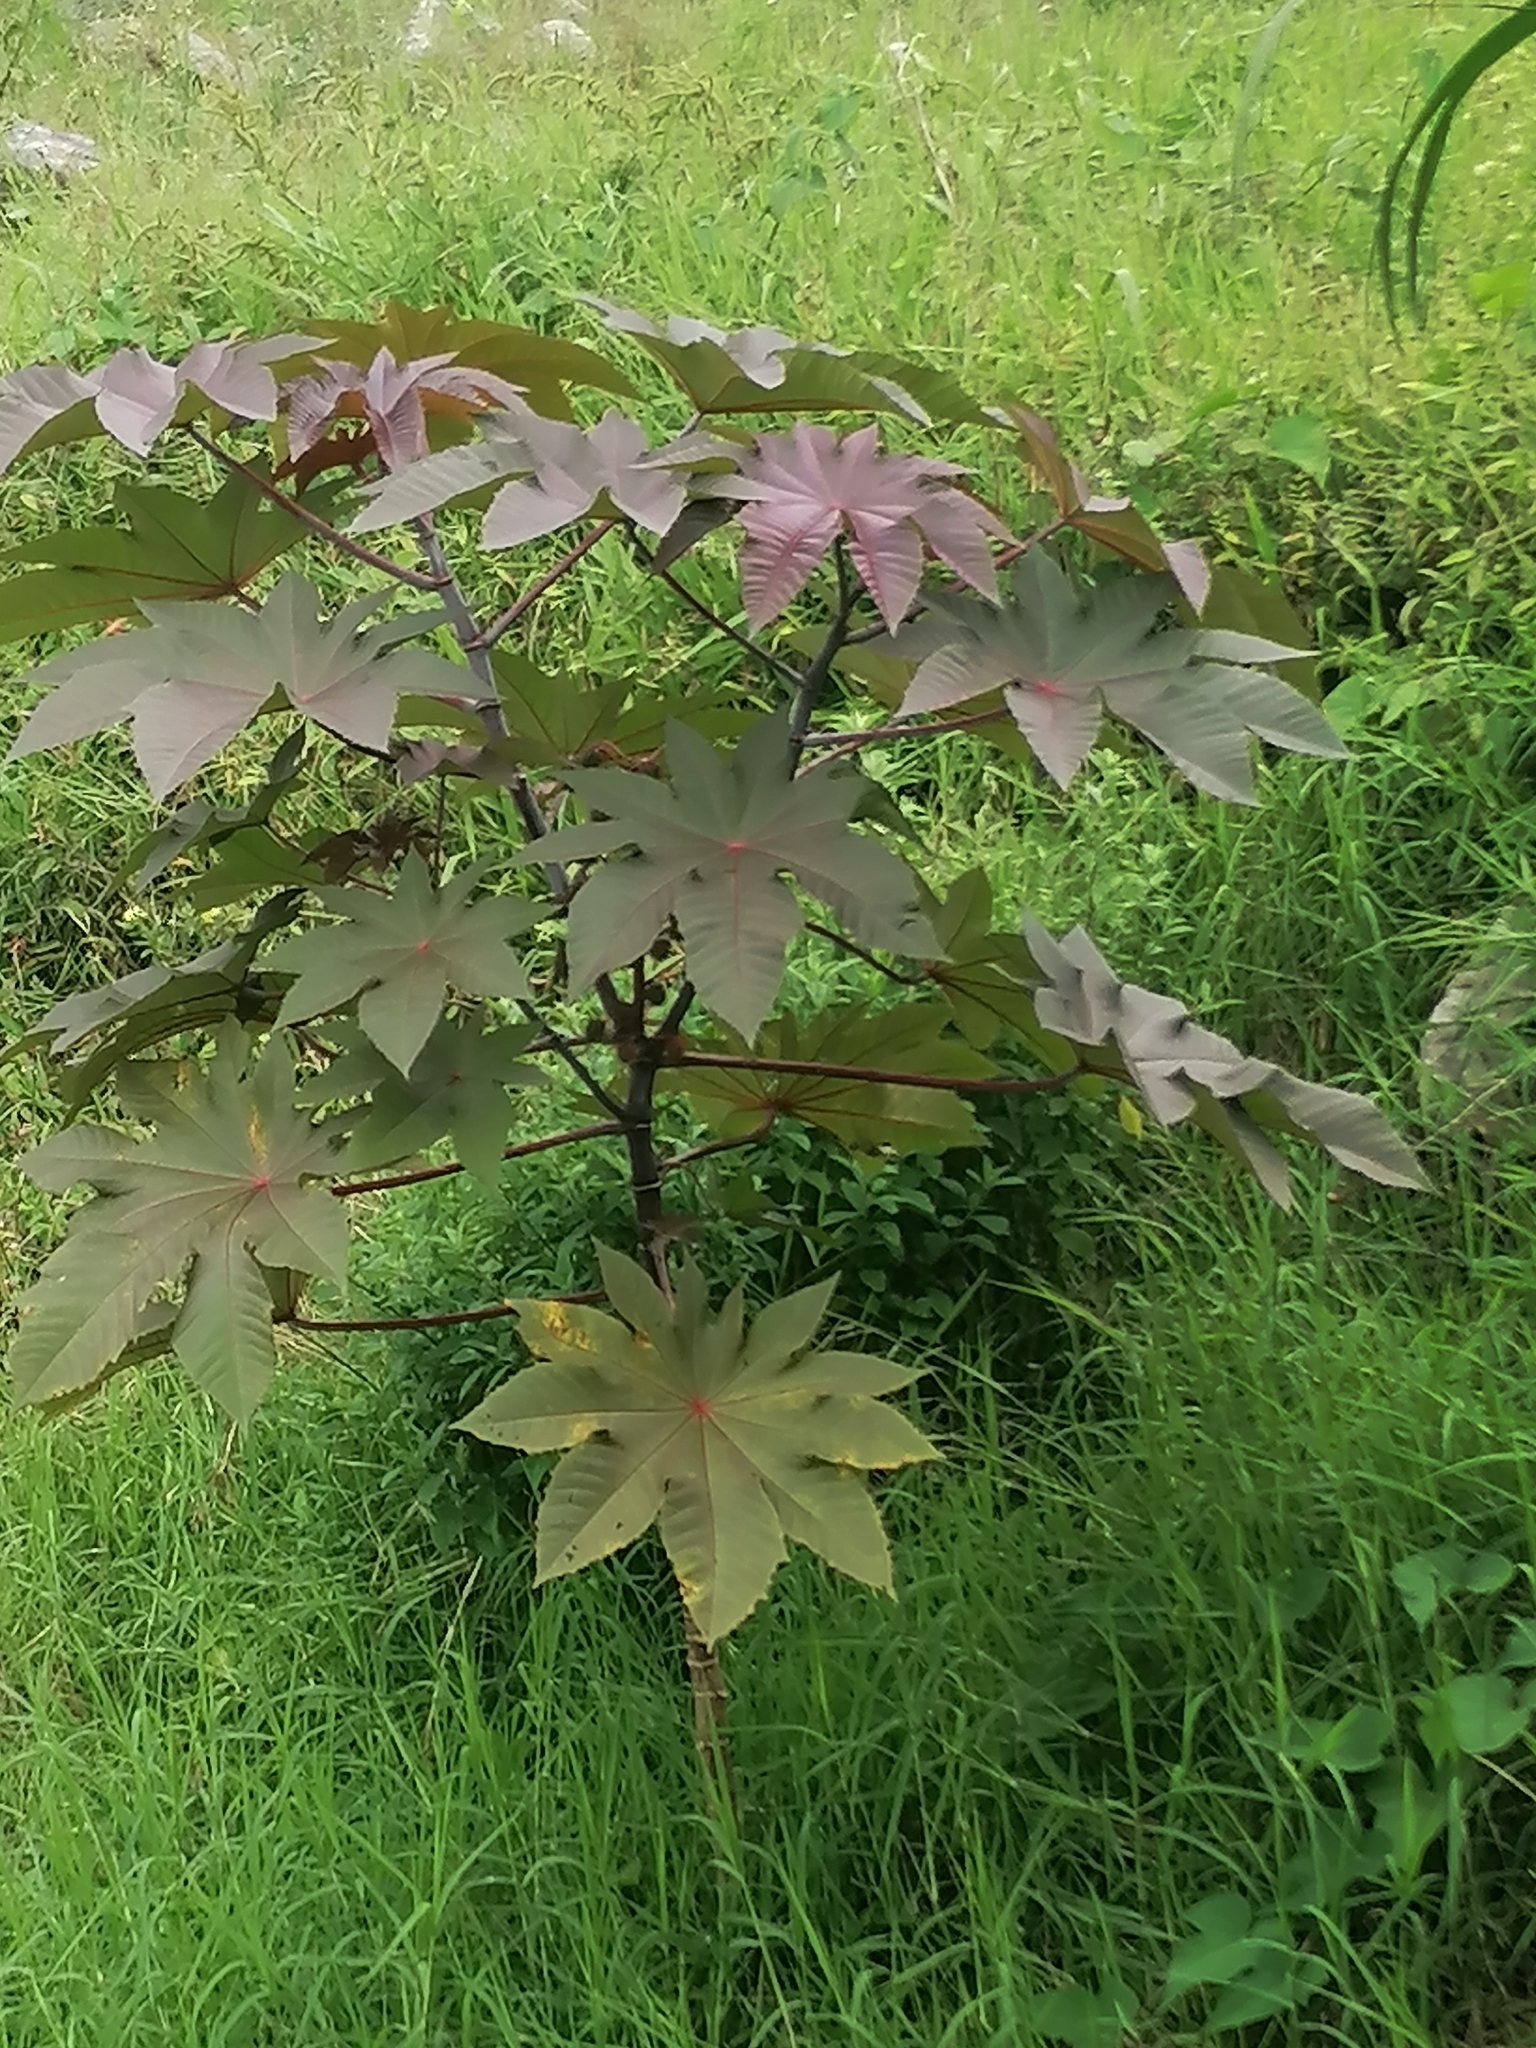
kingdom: Plantae
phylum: Tracheophyta
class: Magnoliopsida
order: Malpighiales
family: Euphorbiaceae
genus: Ricinus
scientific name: Ricinus communis
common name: Castor-oil-plant
